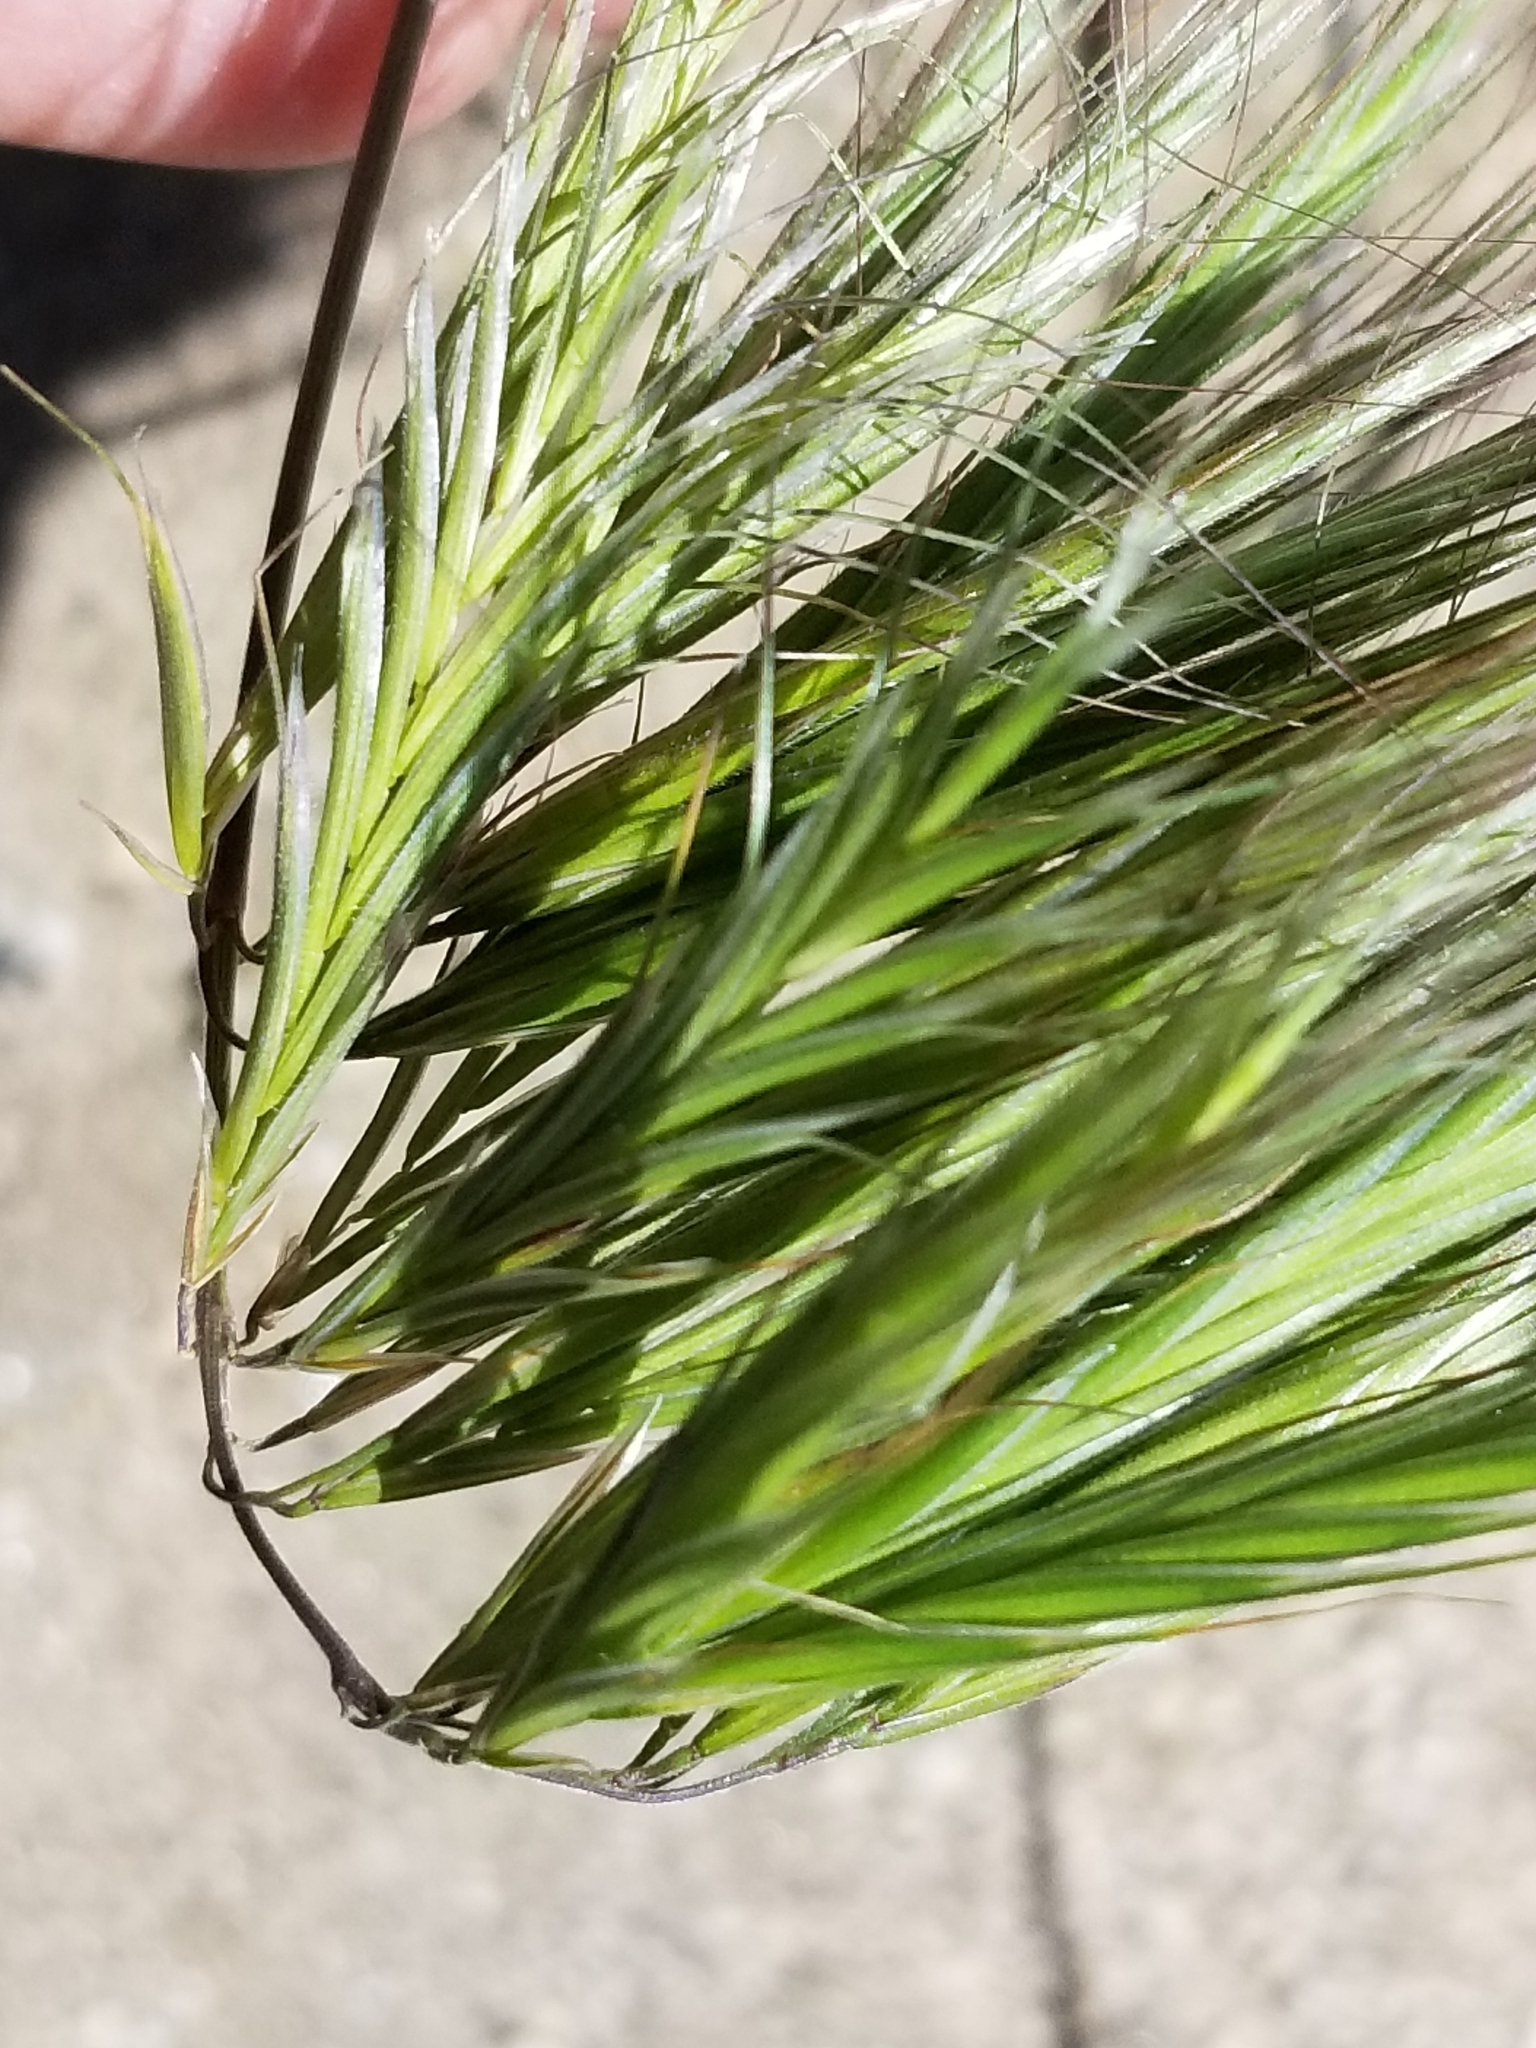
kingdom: Plantae
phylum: Tracheophyta
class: Liliopsida
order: Poales
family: Poaceae
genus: Bromus
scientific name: Bromus rubens
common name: Red brome
